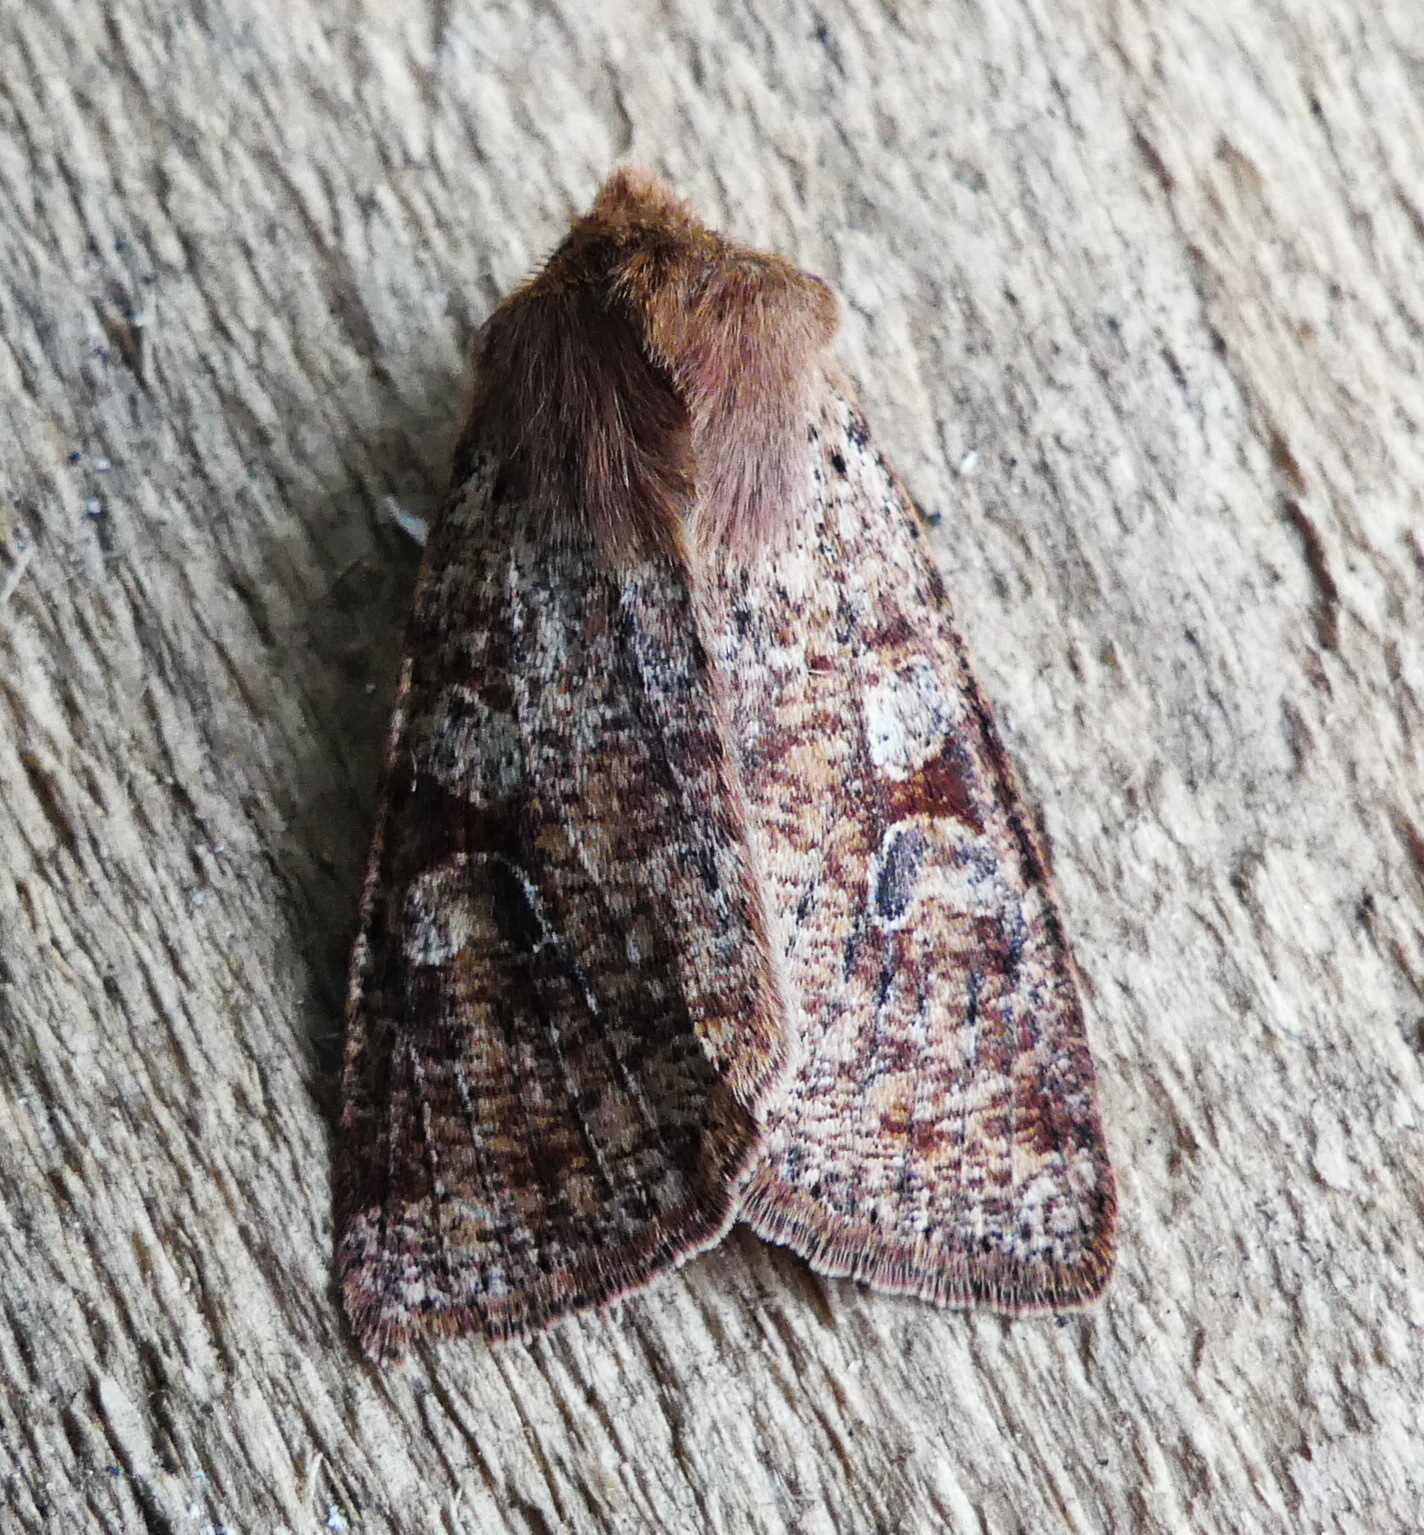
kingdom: Animalia
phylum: Arthropoda
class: Insecta
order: Lepidoptera
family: Noctuidae
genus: Orthosia
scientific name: Orthosia rubescens
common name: Ruby quaker
